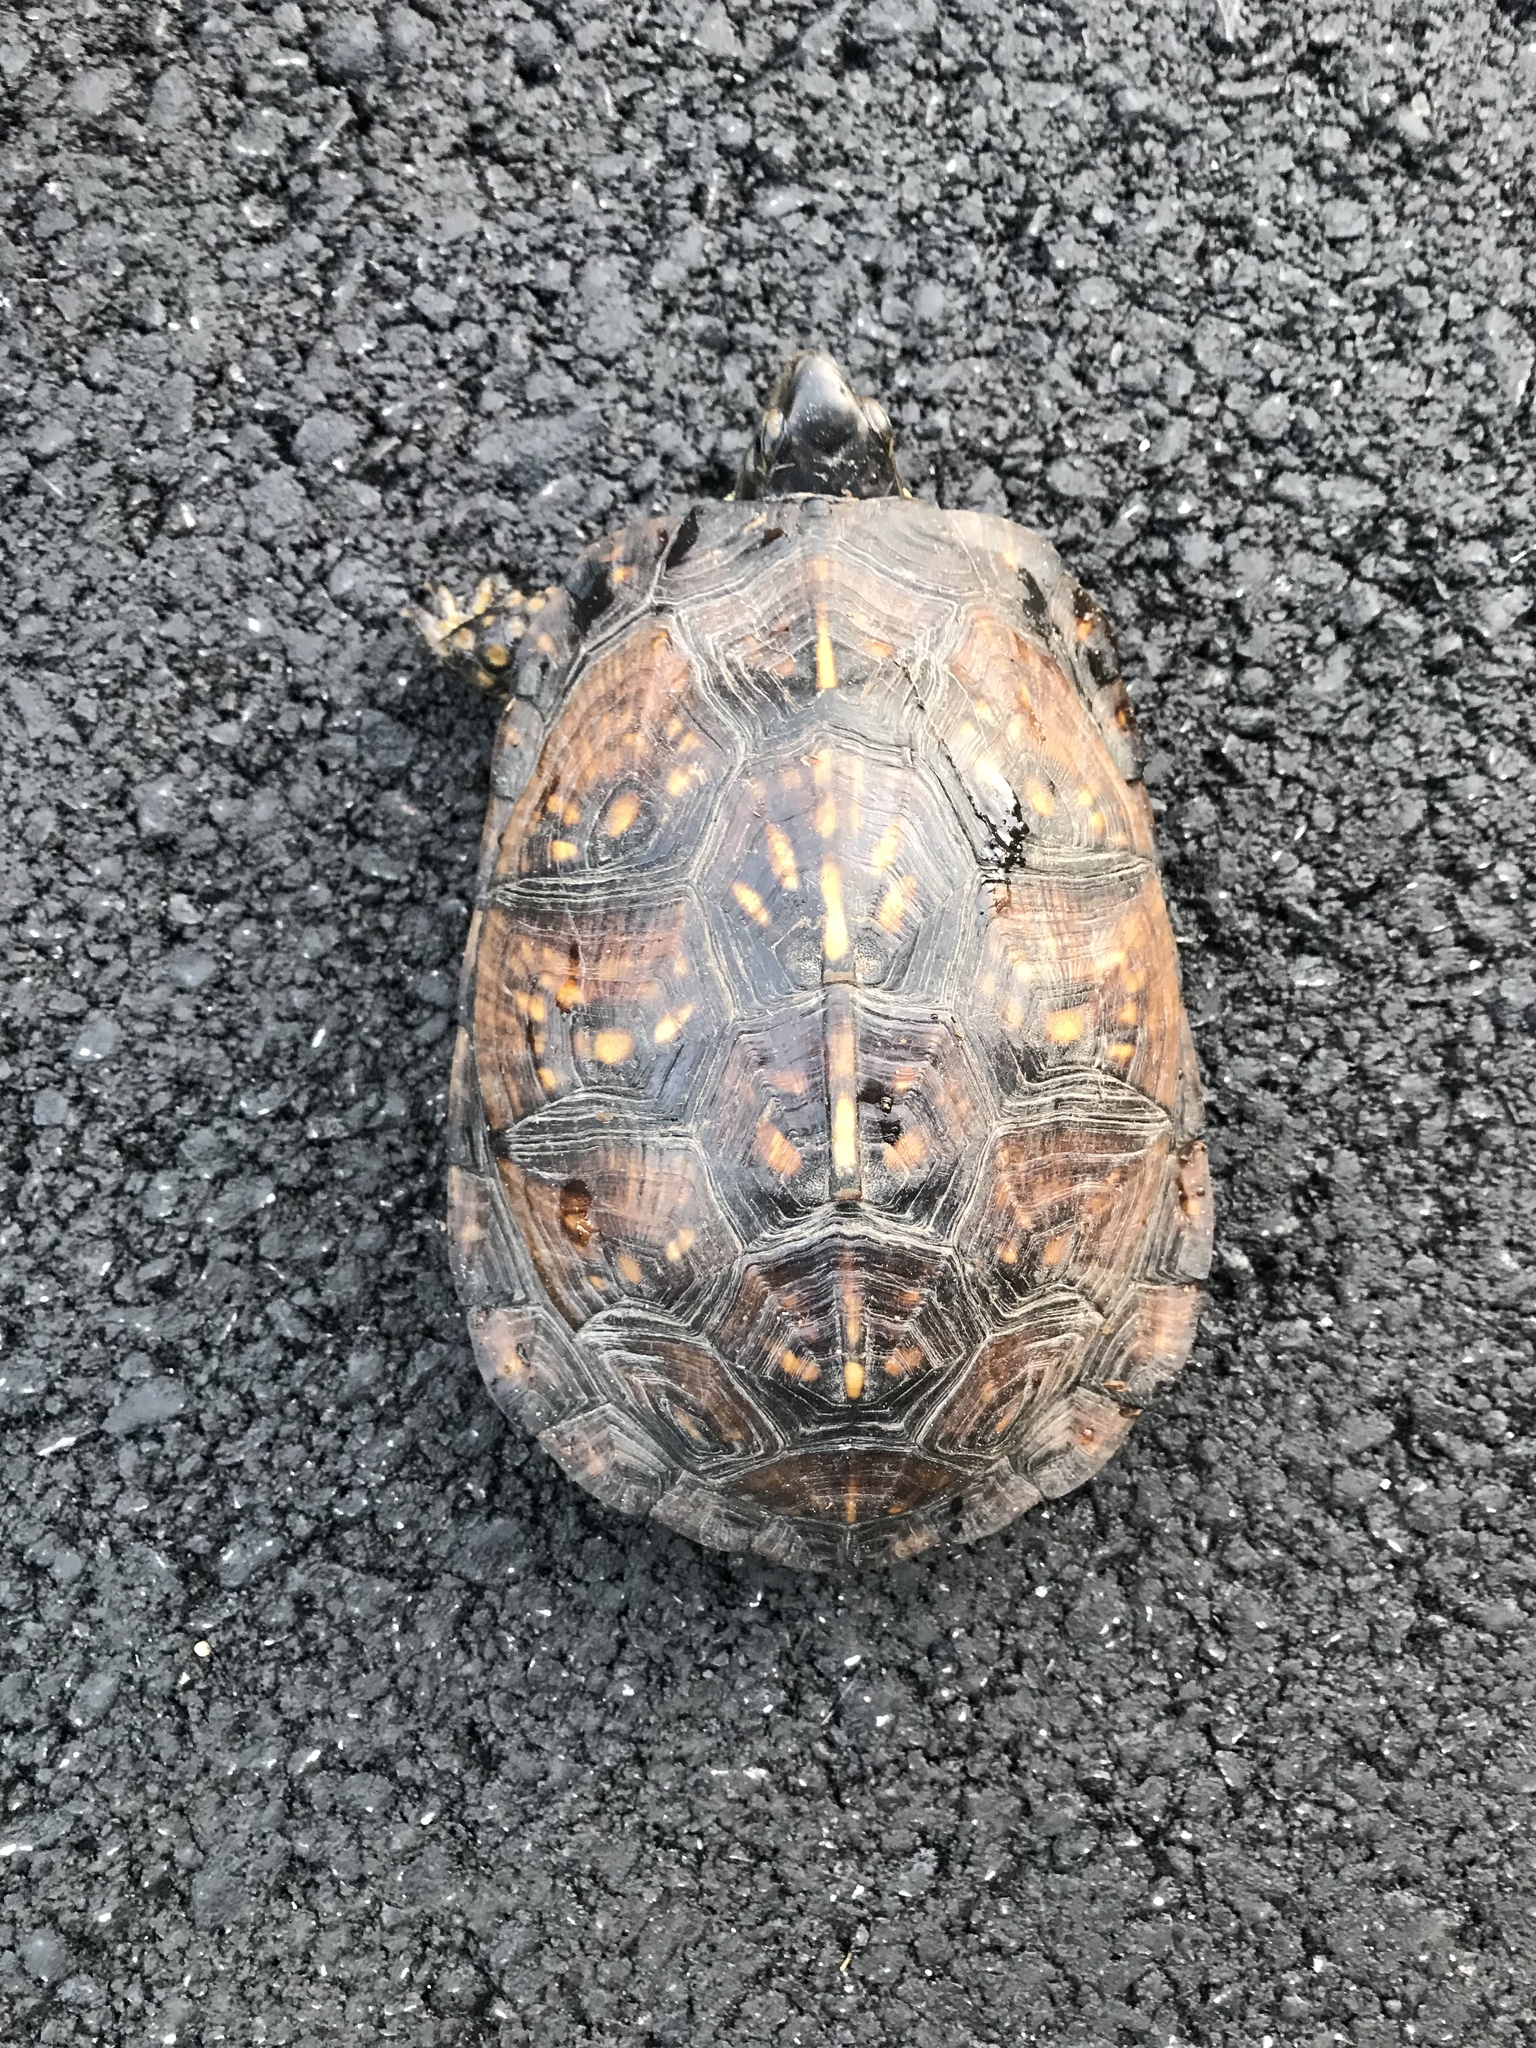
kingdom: Animalia
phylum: Chordata
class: Testudines
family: Emydidae
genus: Terrapene
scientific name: Terrapene carolina
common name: Common box turtle
